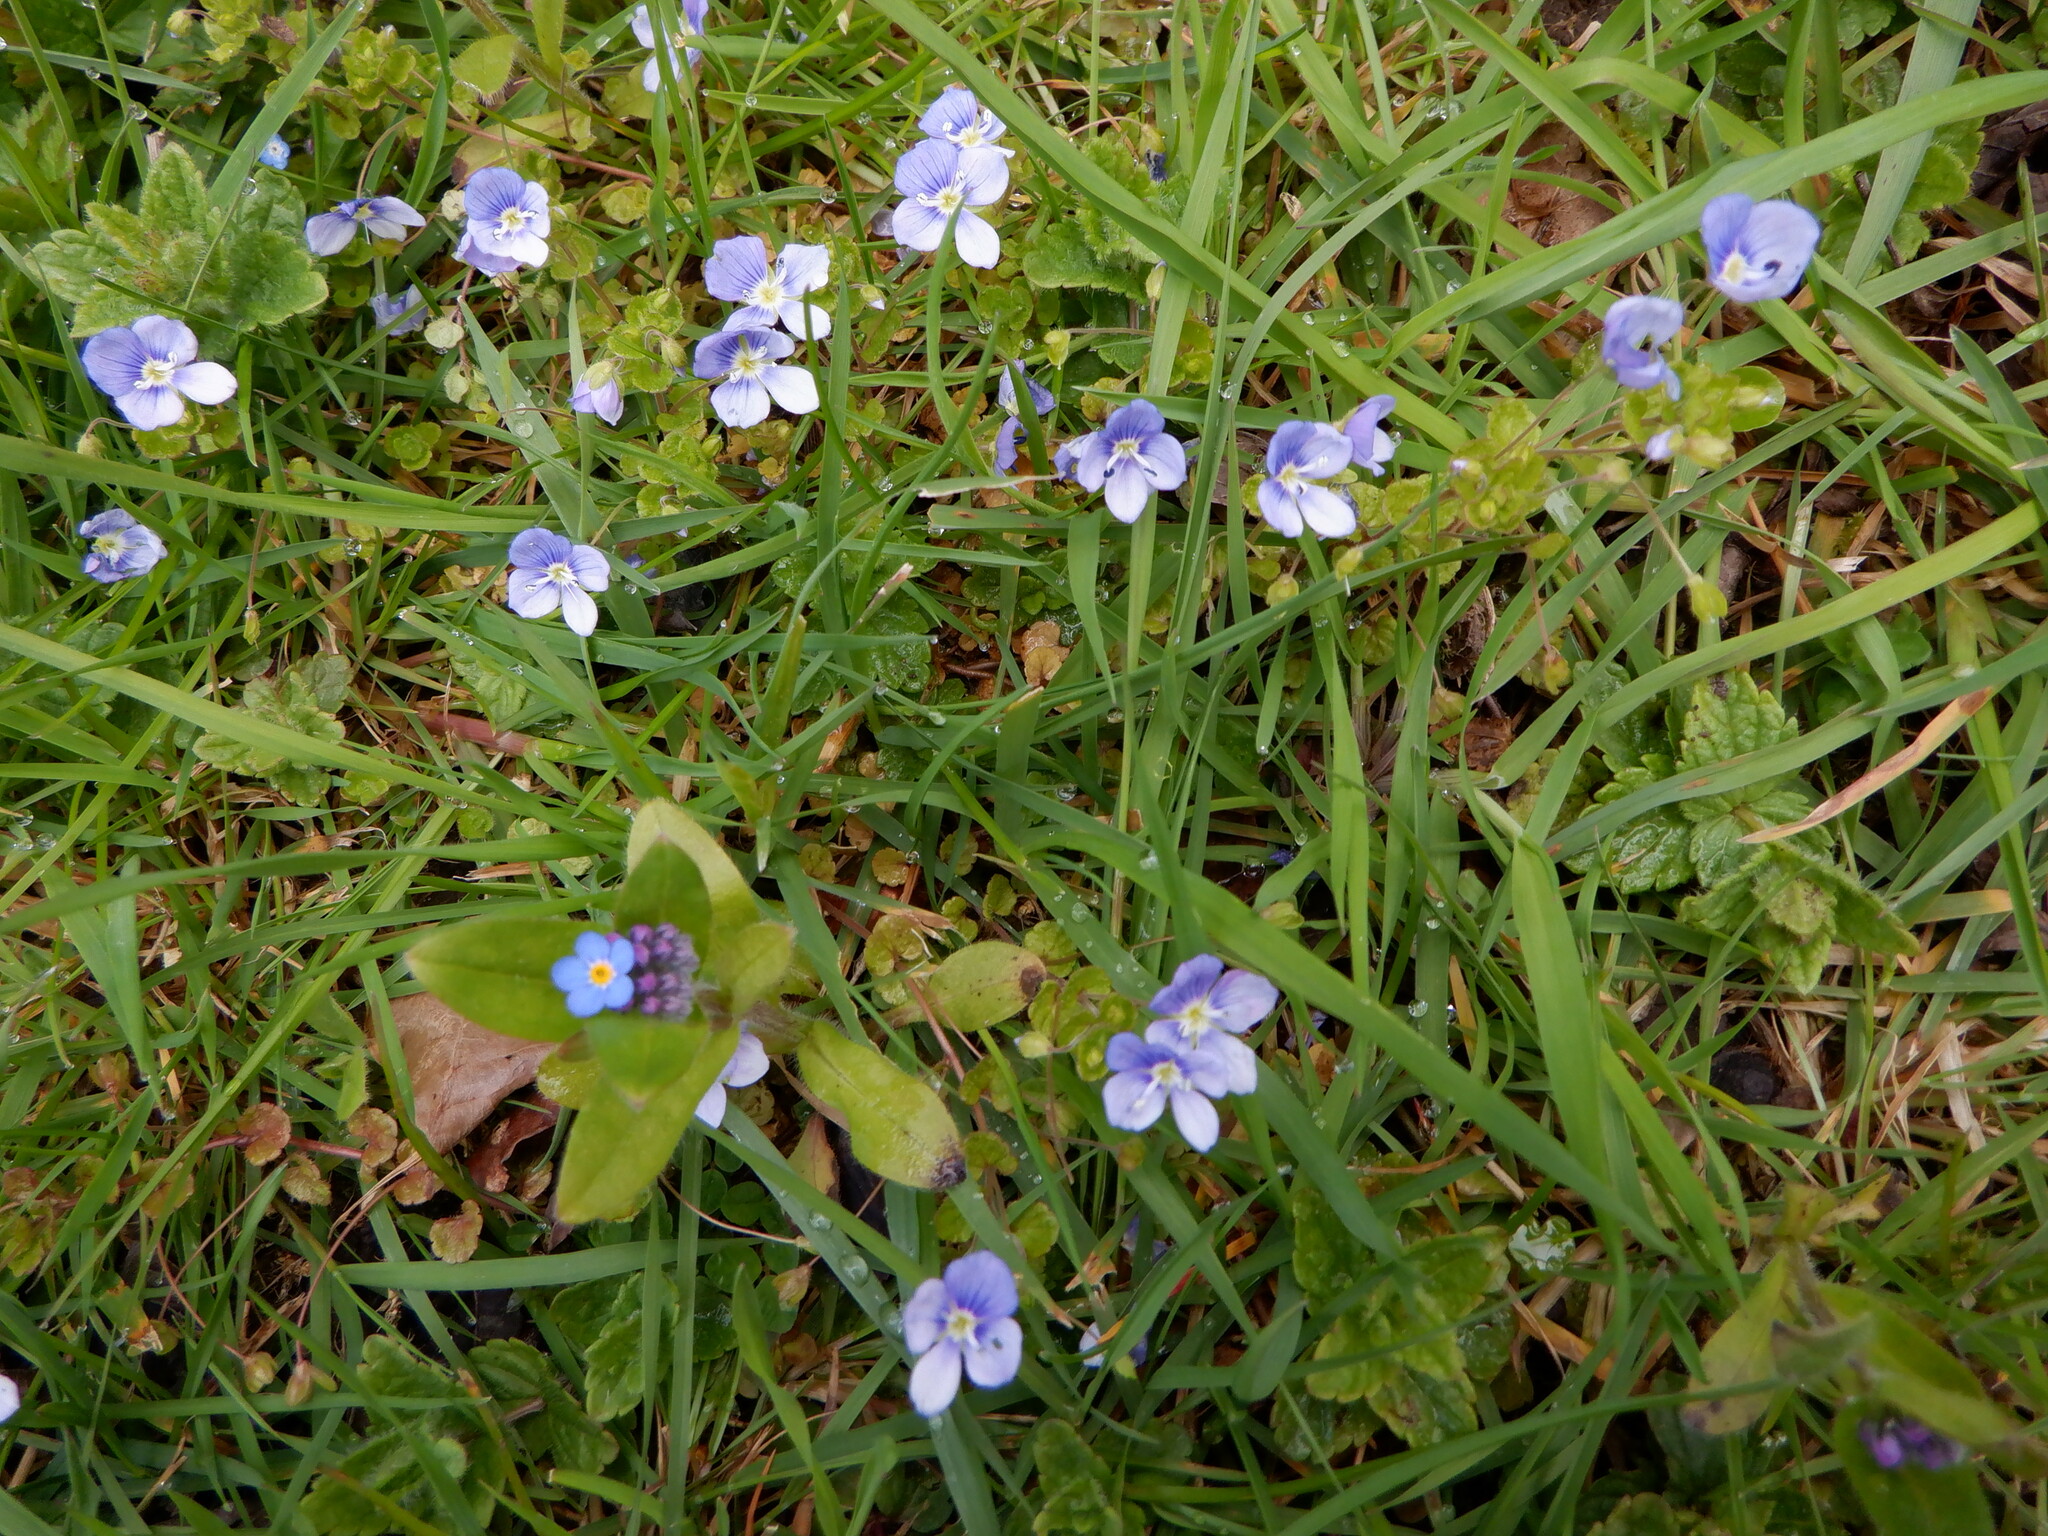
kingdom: Plantae
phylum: Tracheophyta
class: Magnoliopsida
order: Lamiales
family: Plantaginaceae
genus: Veronica
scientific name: Veronica filiformis
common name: Slender speedwell
